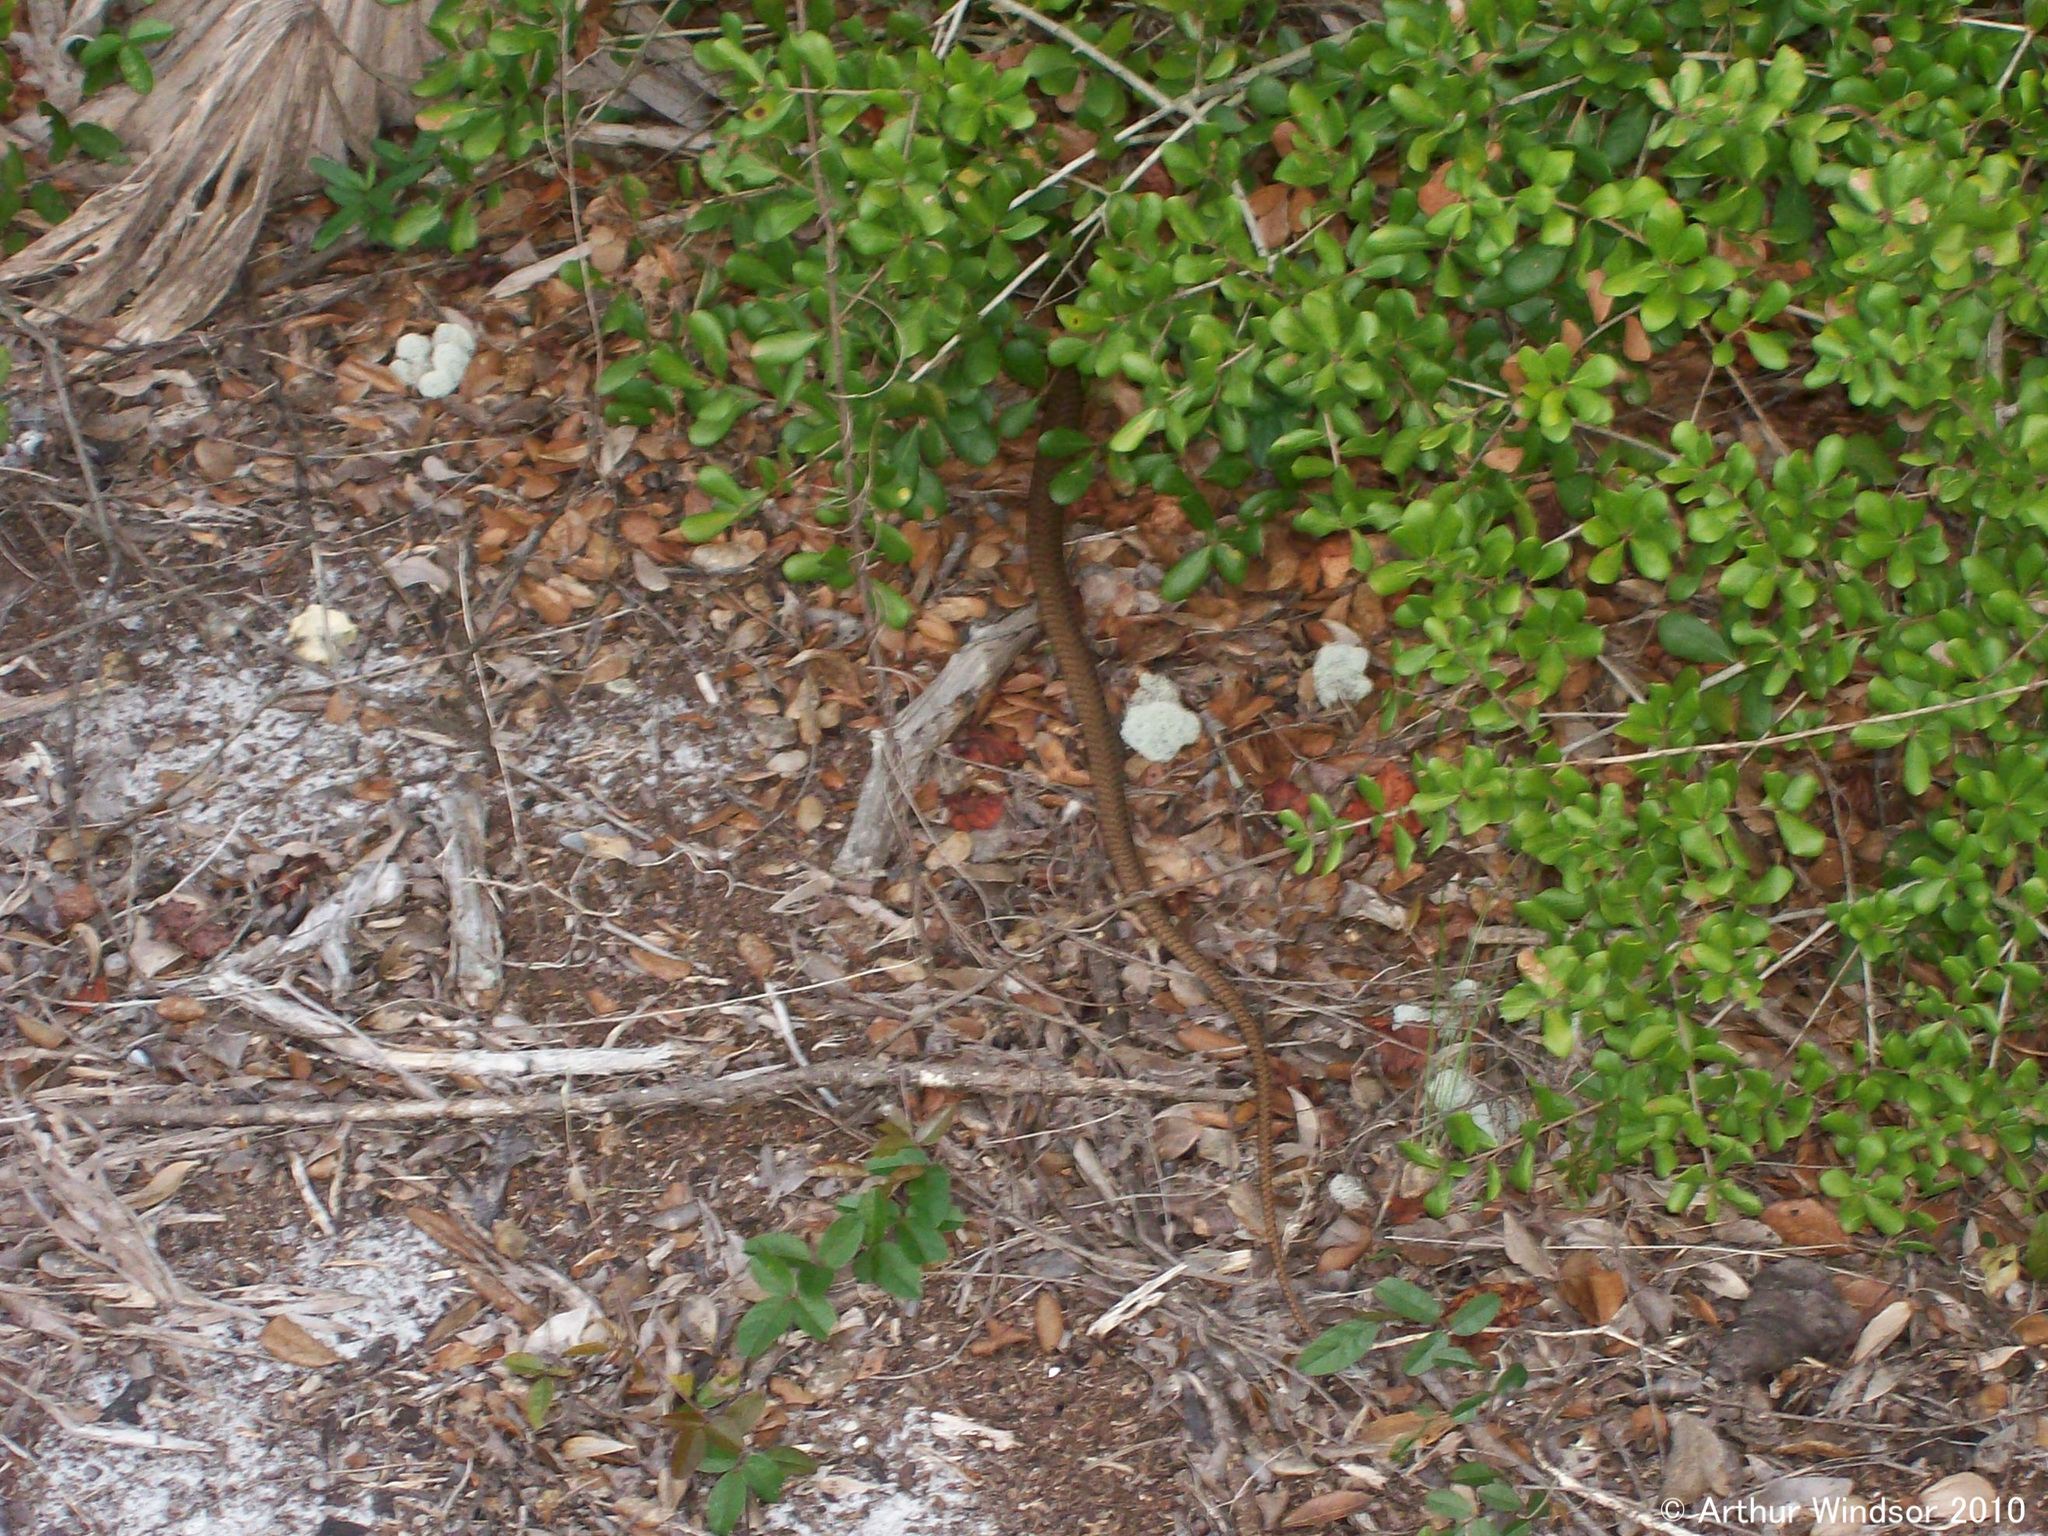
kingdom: Animalia
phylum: Chordata
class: Squamata
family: Colubridae
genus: Masticophis
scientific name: Masticophis flagellum
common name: Coachwhip
